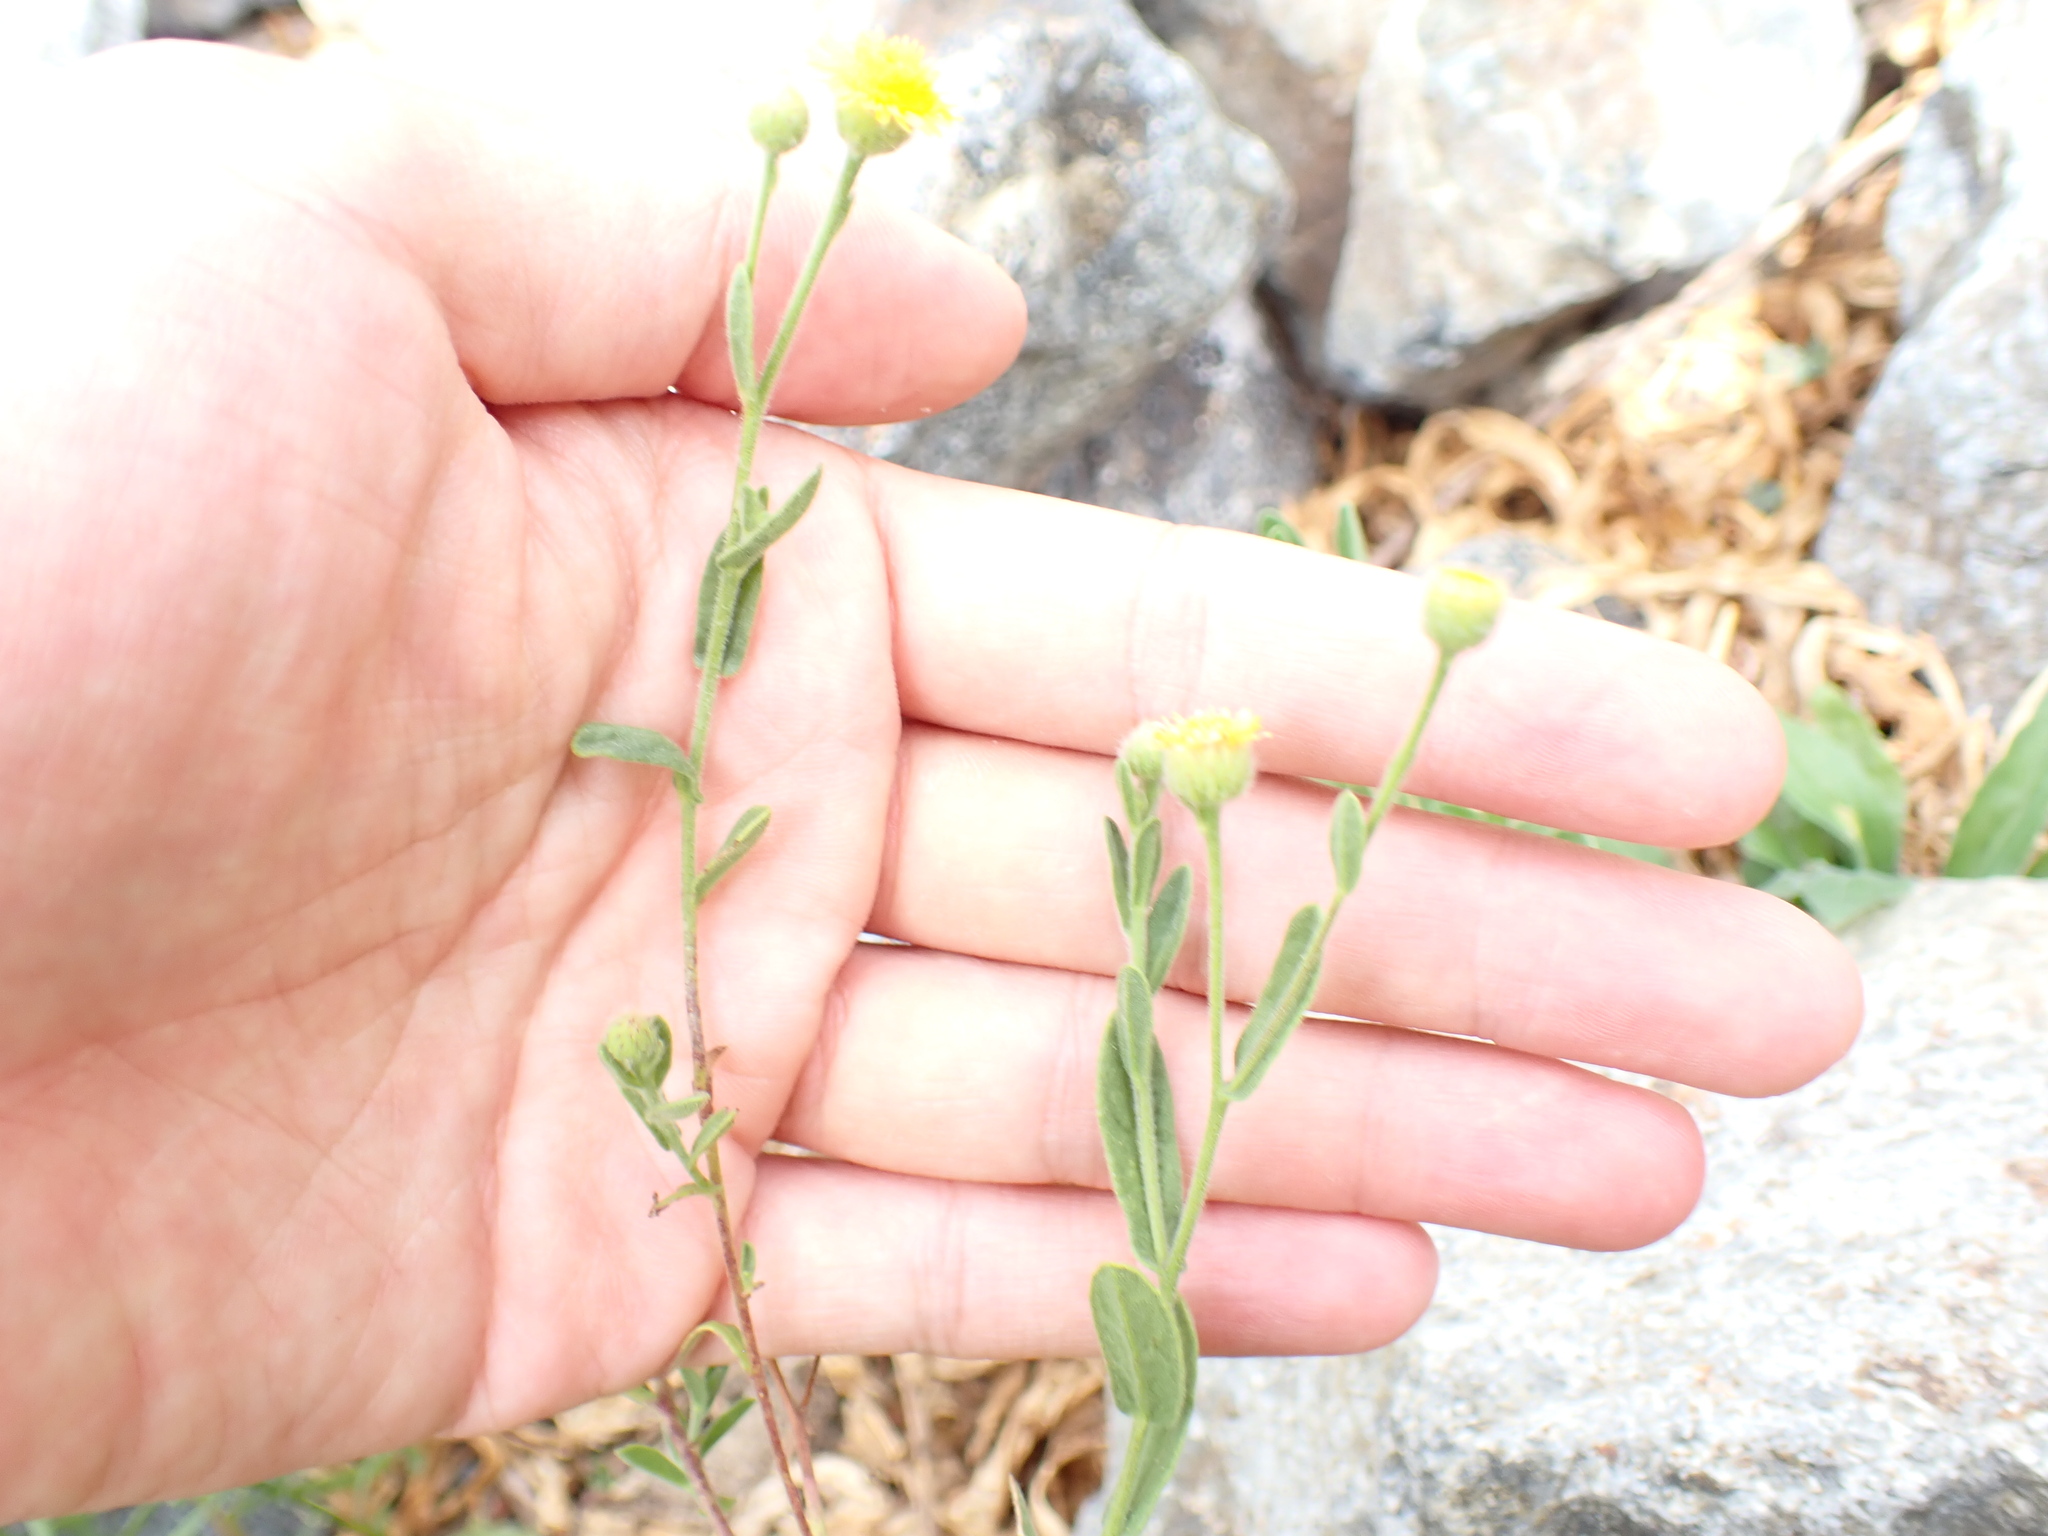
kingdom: Plantae
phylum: Tracheophyta
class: Magnoliopsida
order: Asterales
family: Asteraceae
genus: Pulicaria
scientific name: Pulicaria paludosa
